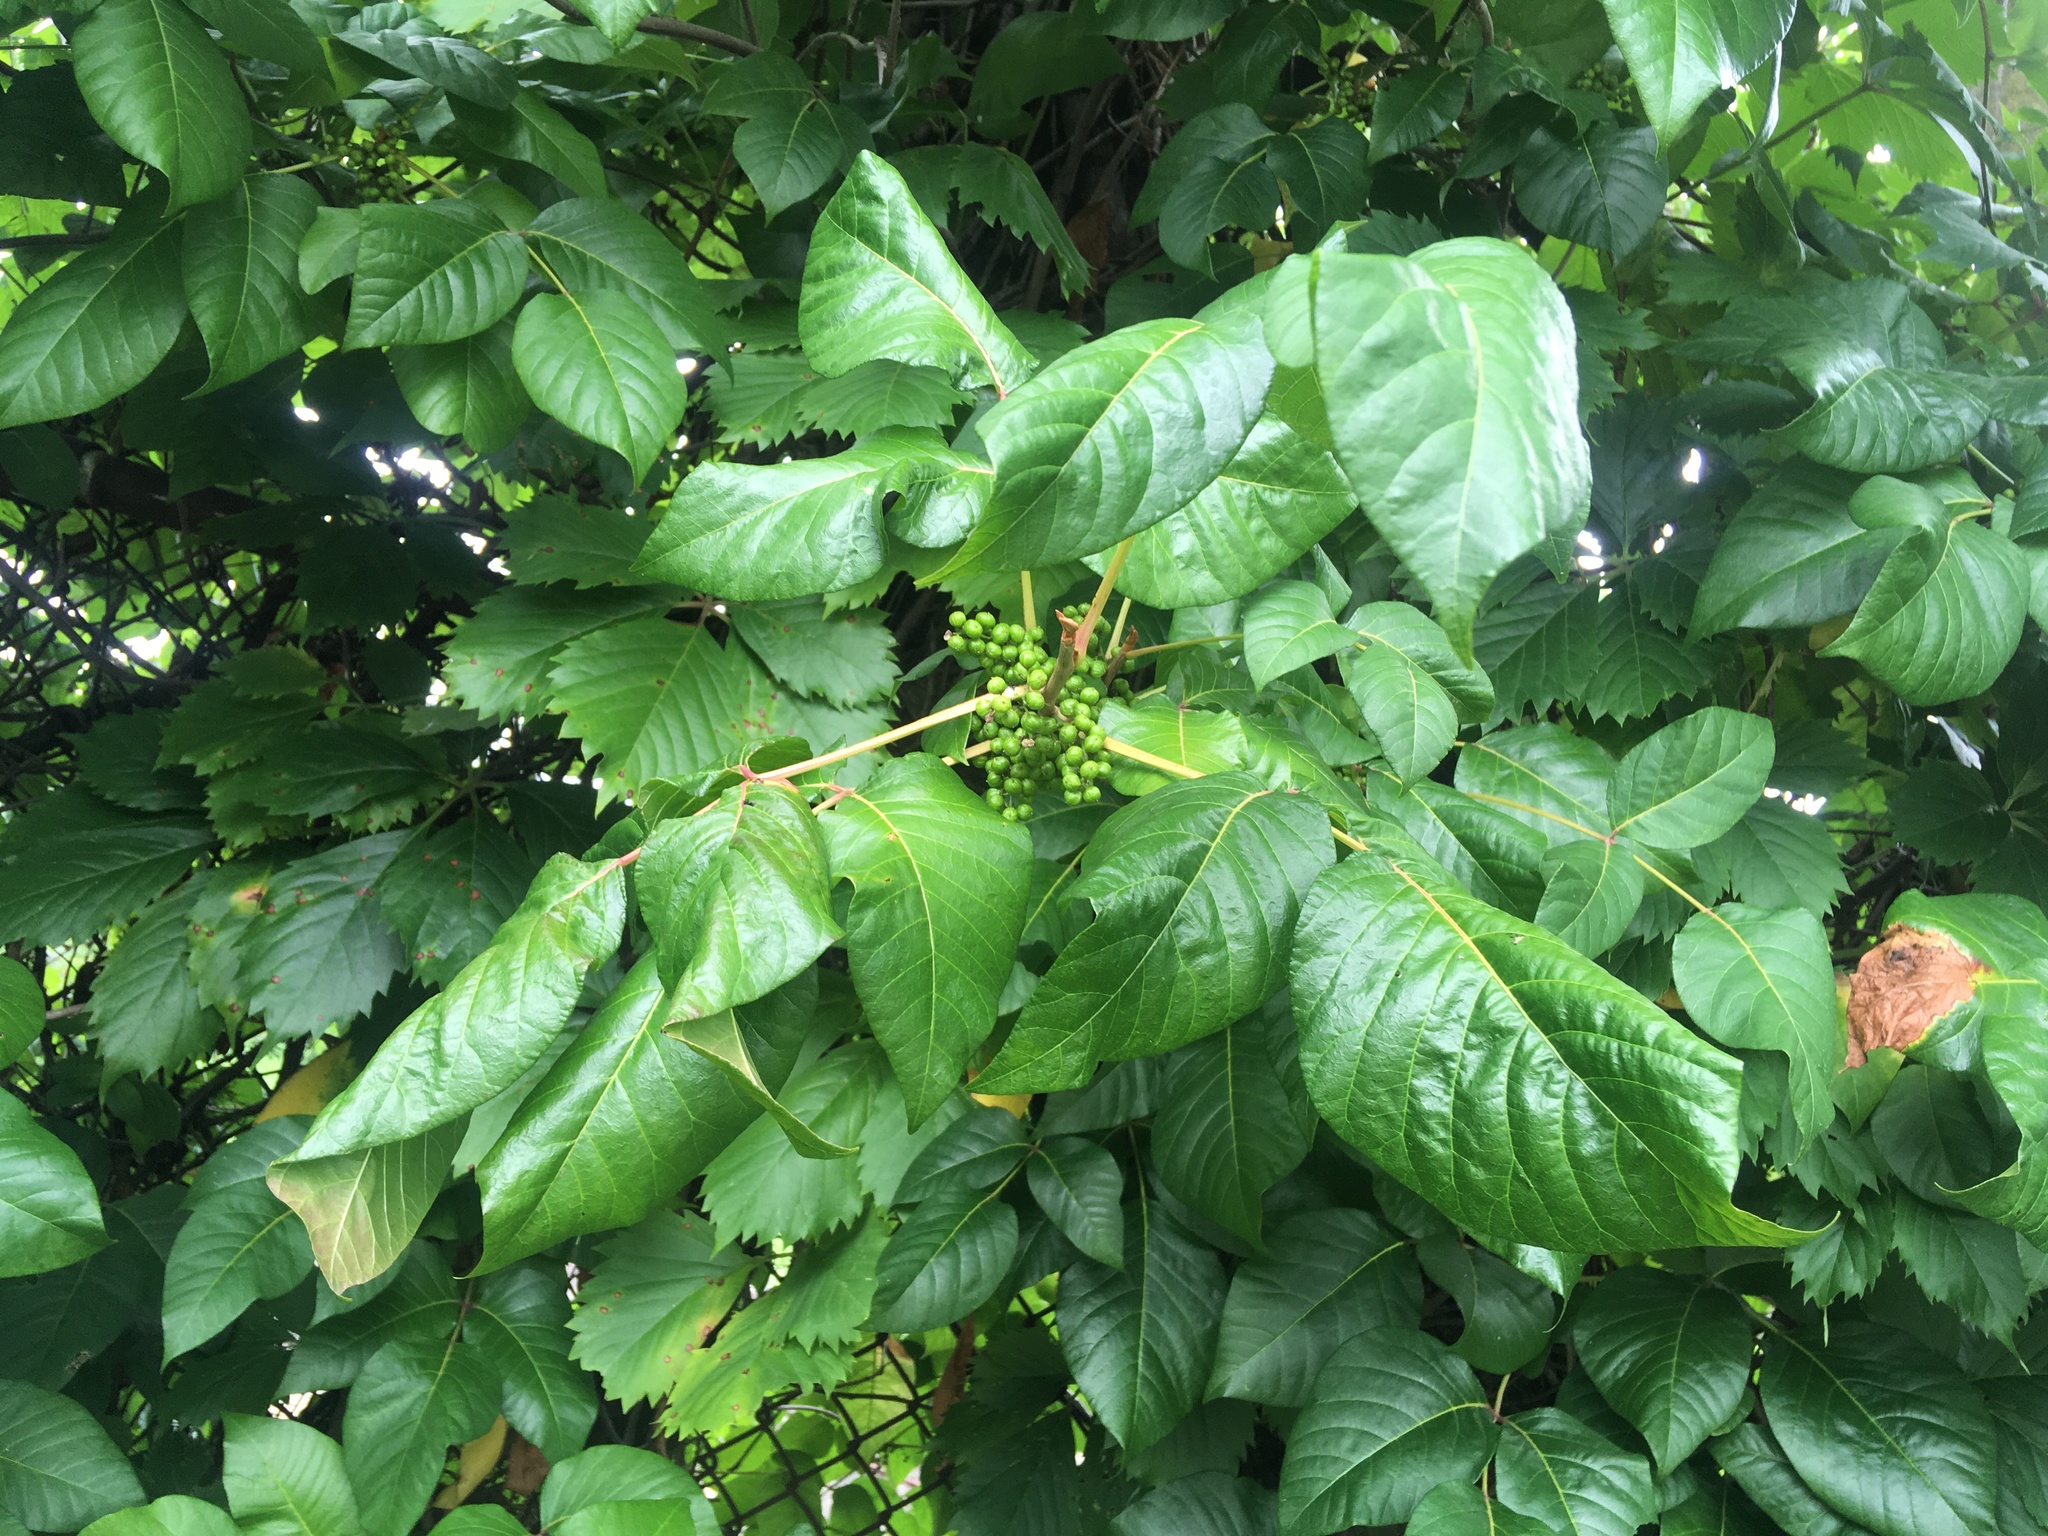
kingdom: Plantae
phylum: Tracheophyta
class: Magnoliopsida
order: Sapindales
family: Anacardiaceae
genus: Toxicodendron
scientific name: Toxicodendron radicans
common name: Poison ivy
